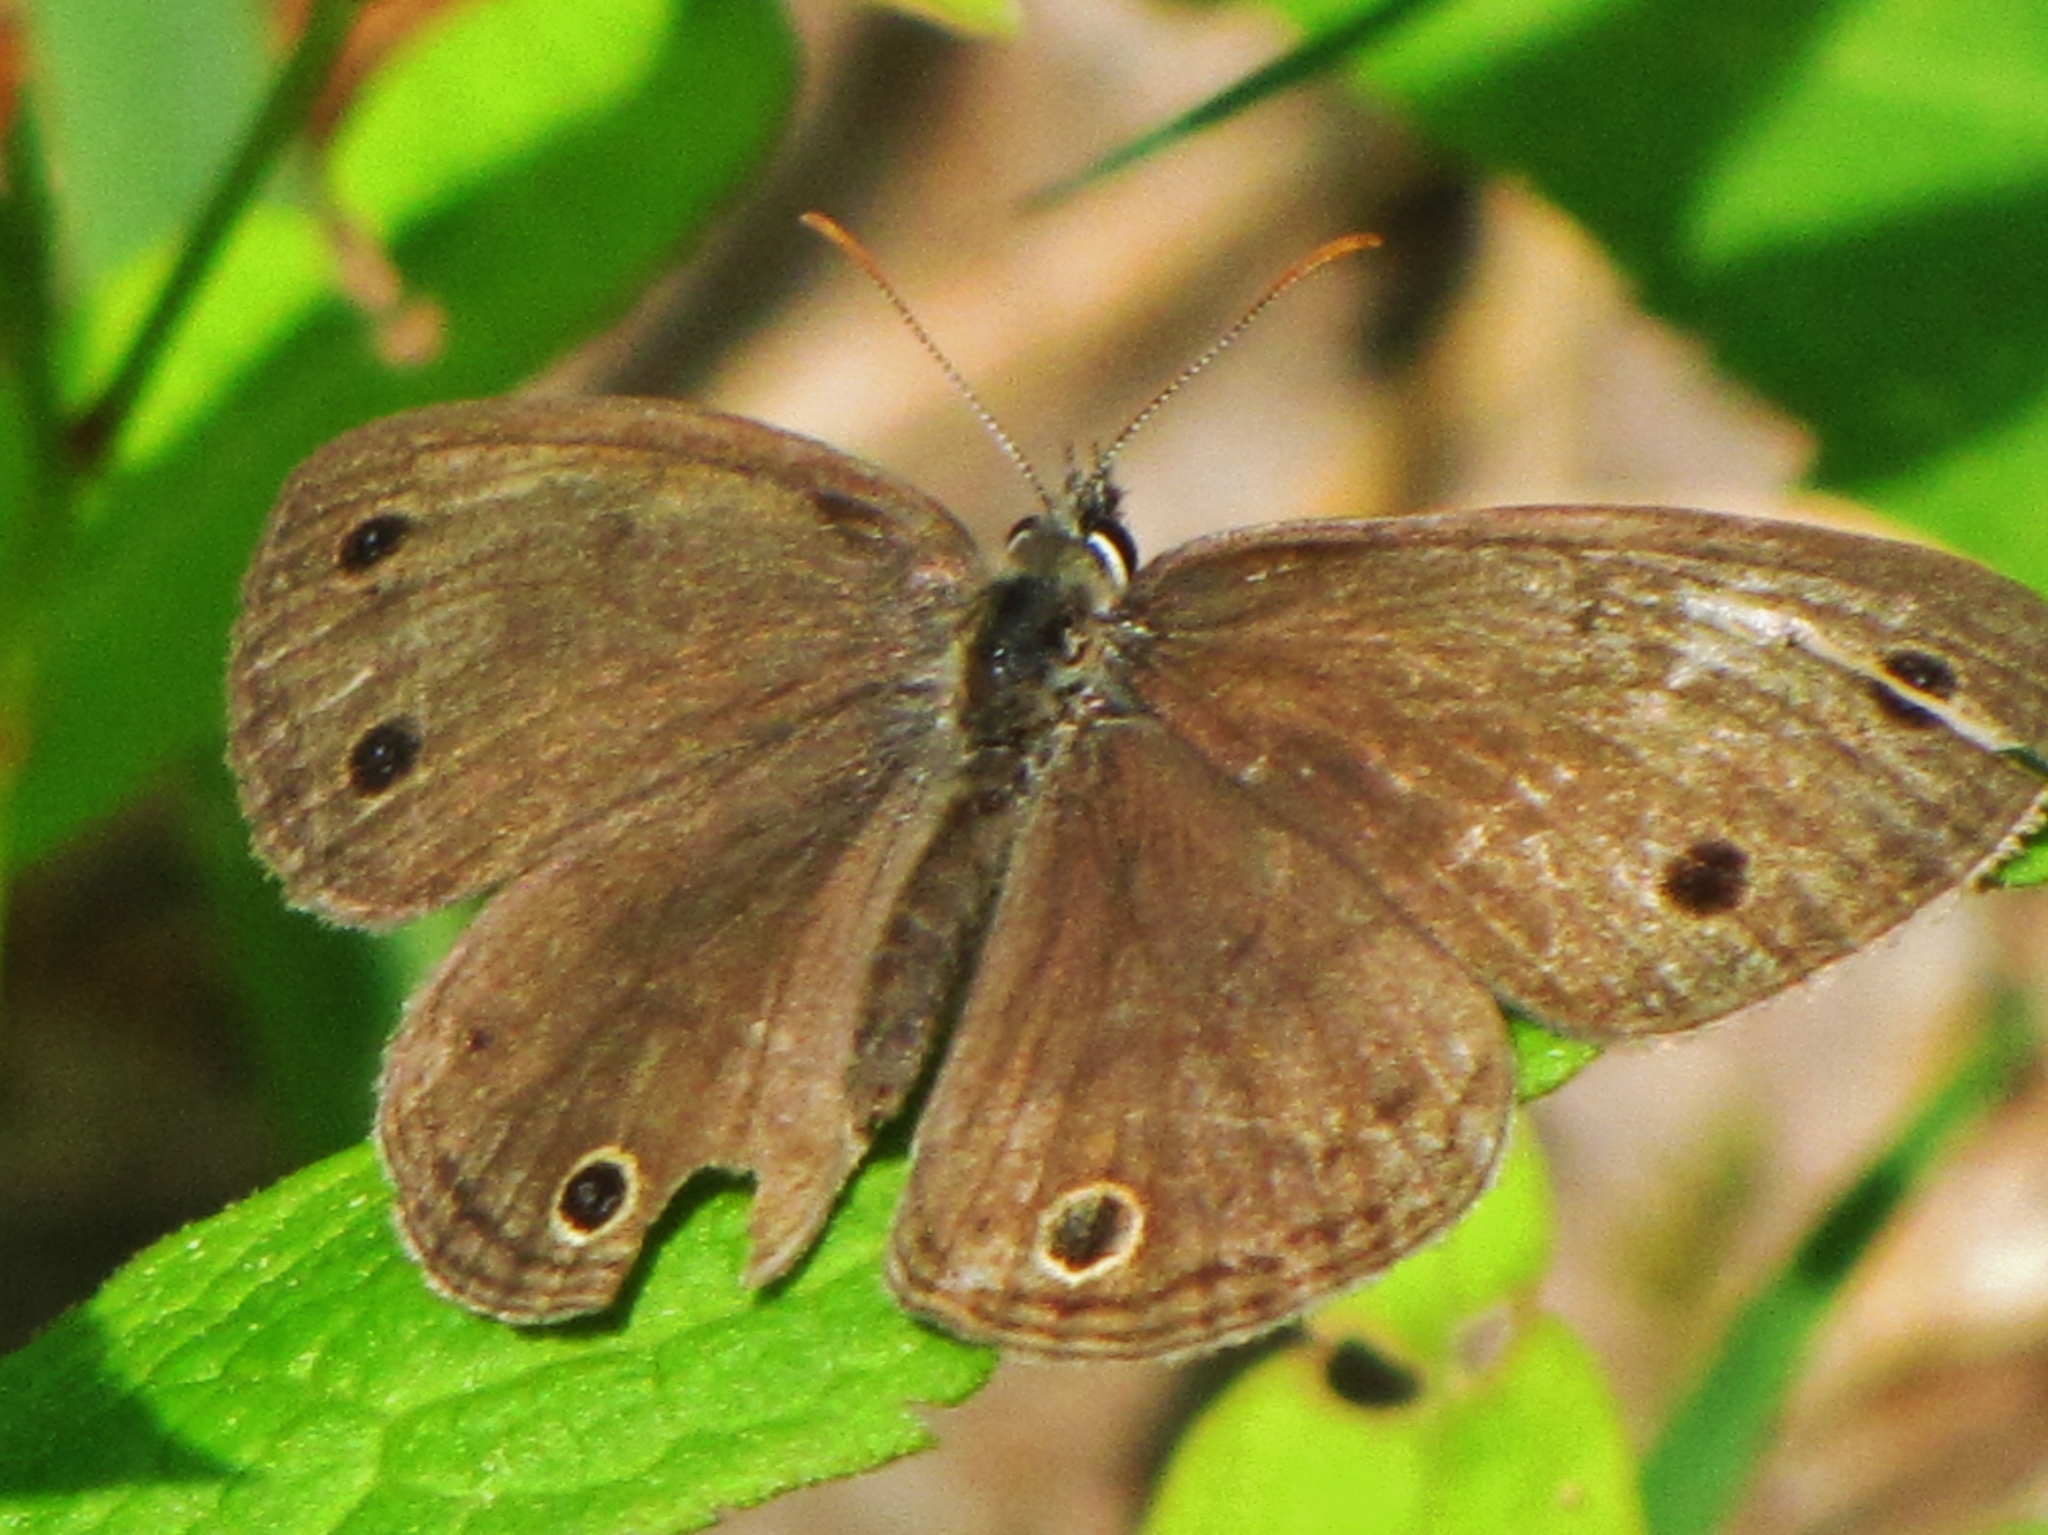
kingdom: Animalia
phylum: Arthropoda
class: Insecta
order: Lepidoptera
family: Nymphalidae
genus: Euptychia
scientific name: Euptychia cymela
